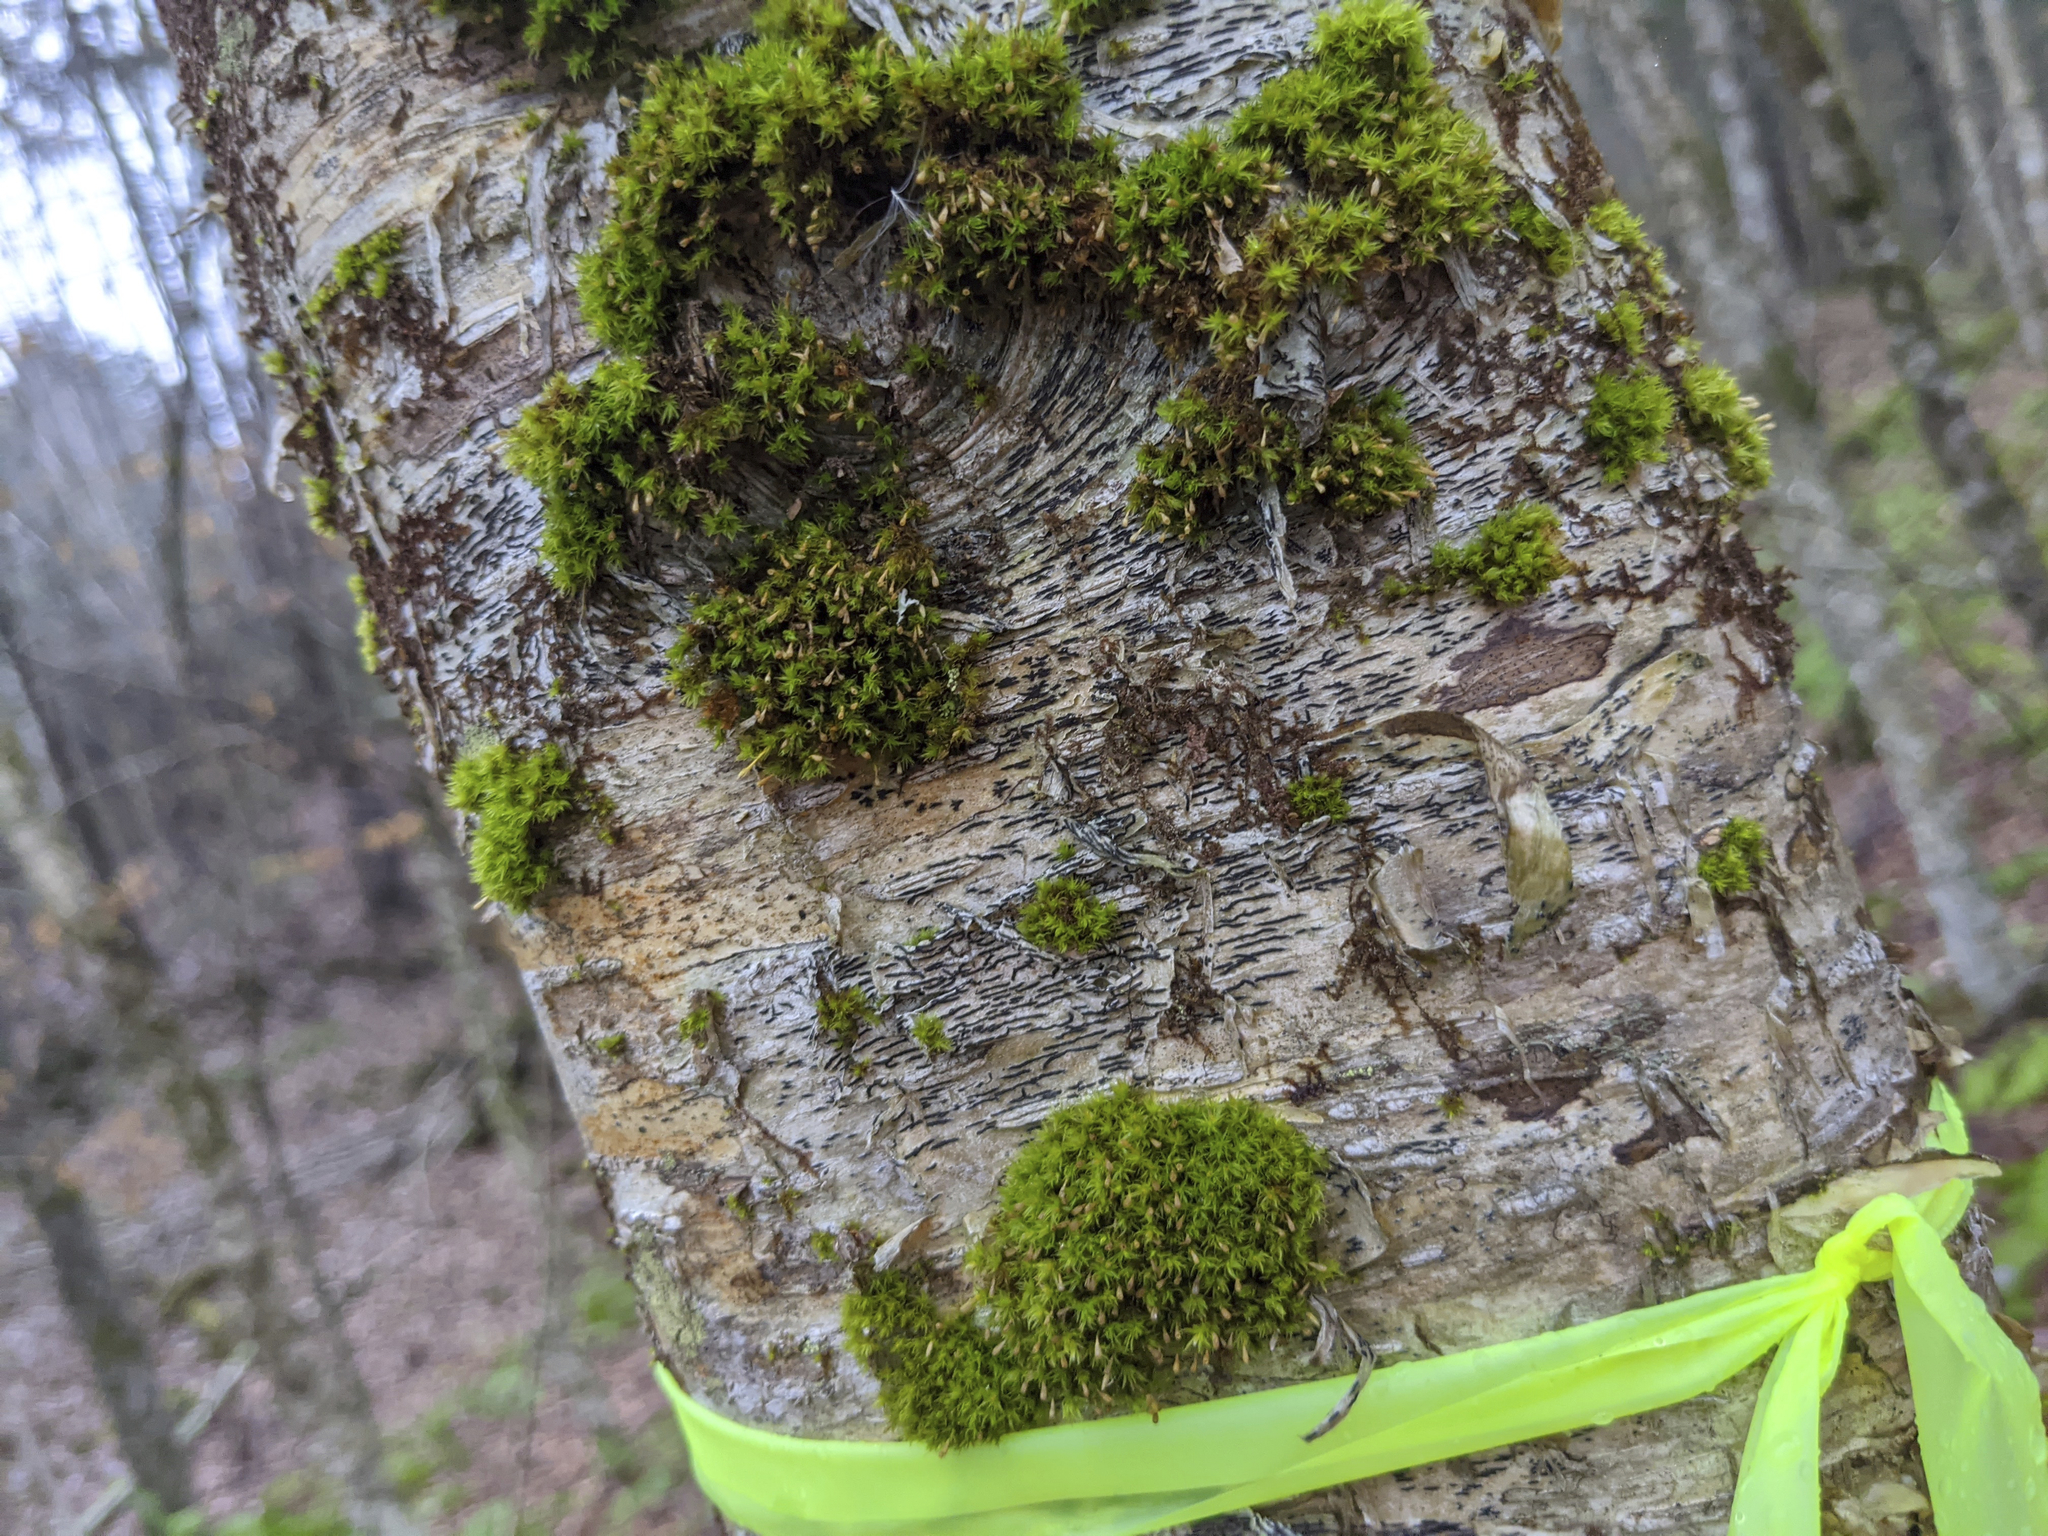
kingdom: Plantae
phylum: Bryophyta
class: Bryopsida
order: Orthotrichales
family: Orthotrichaceae
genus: Ulota
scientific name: Ulota crispa
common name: Crisped pincushion moss
